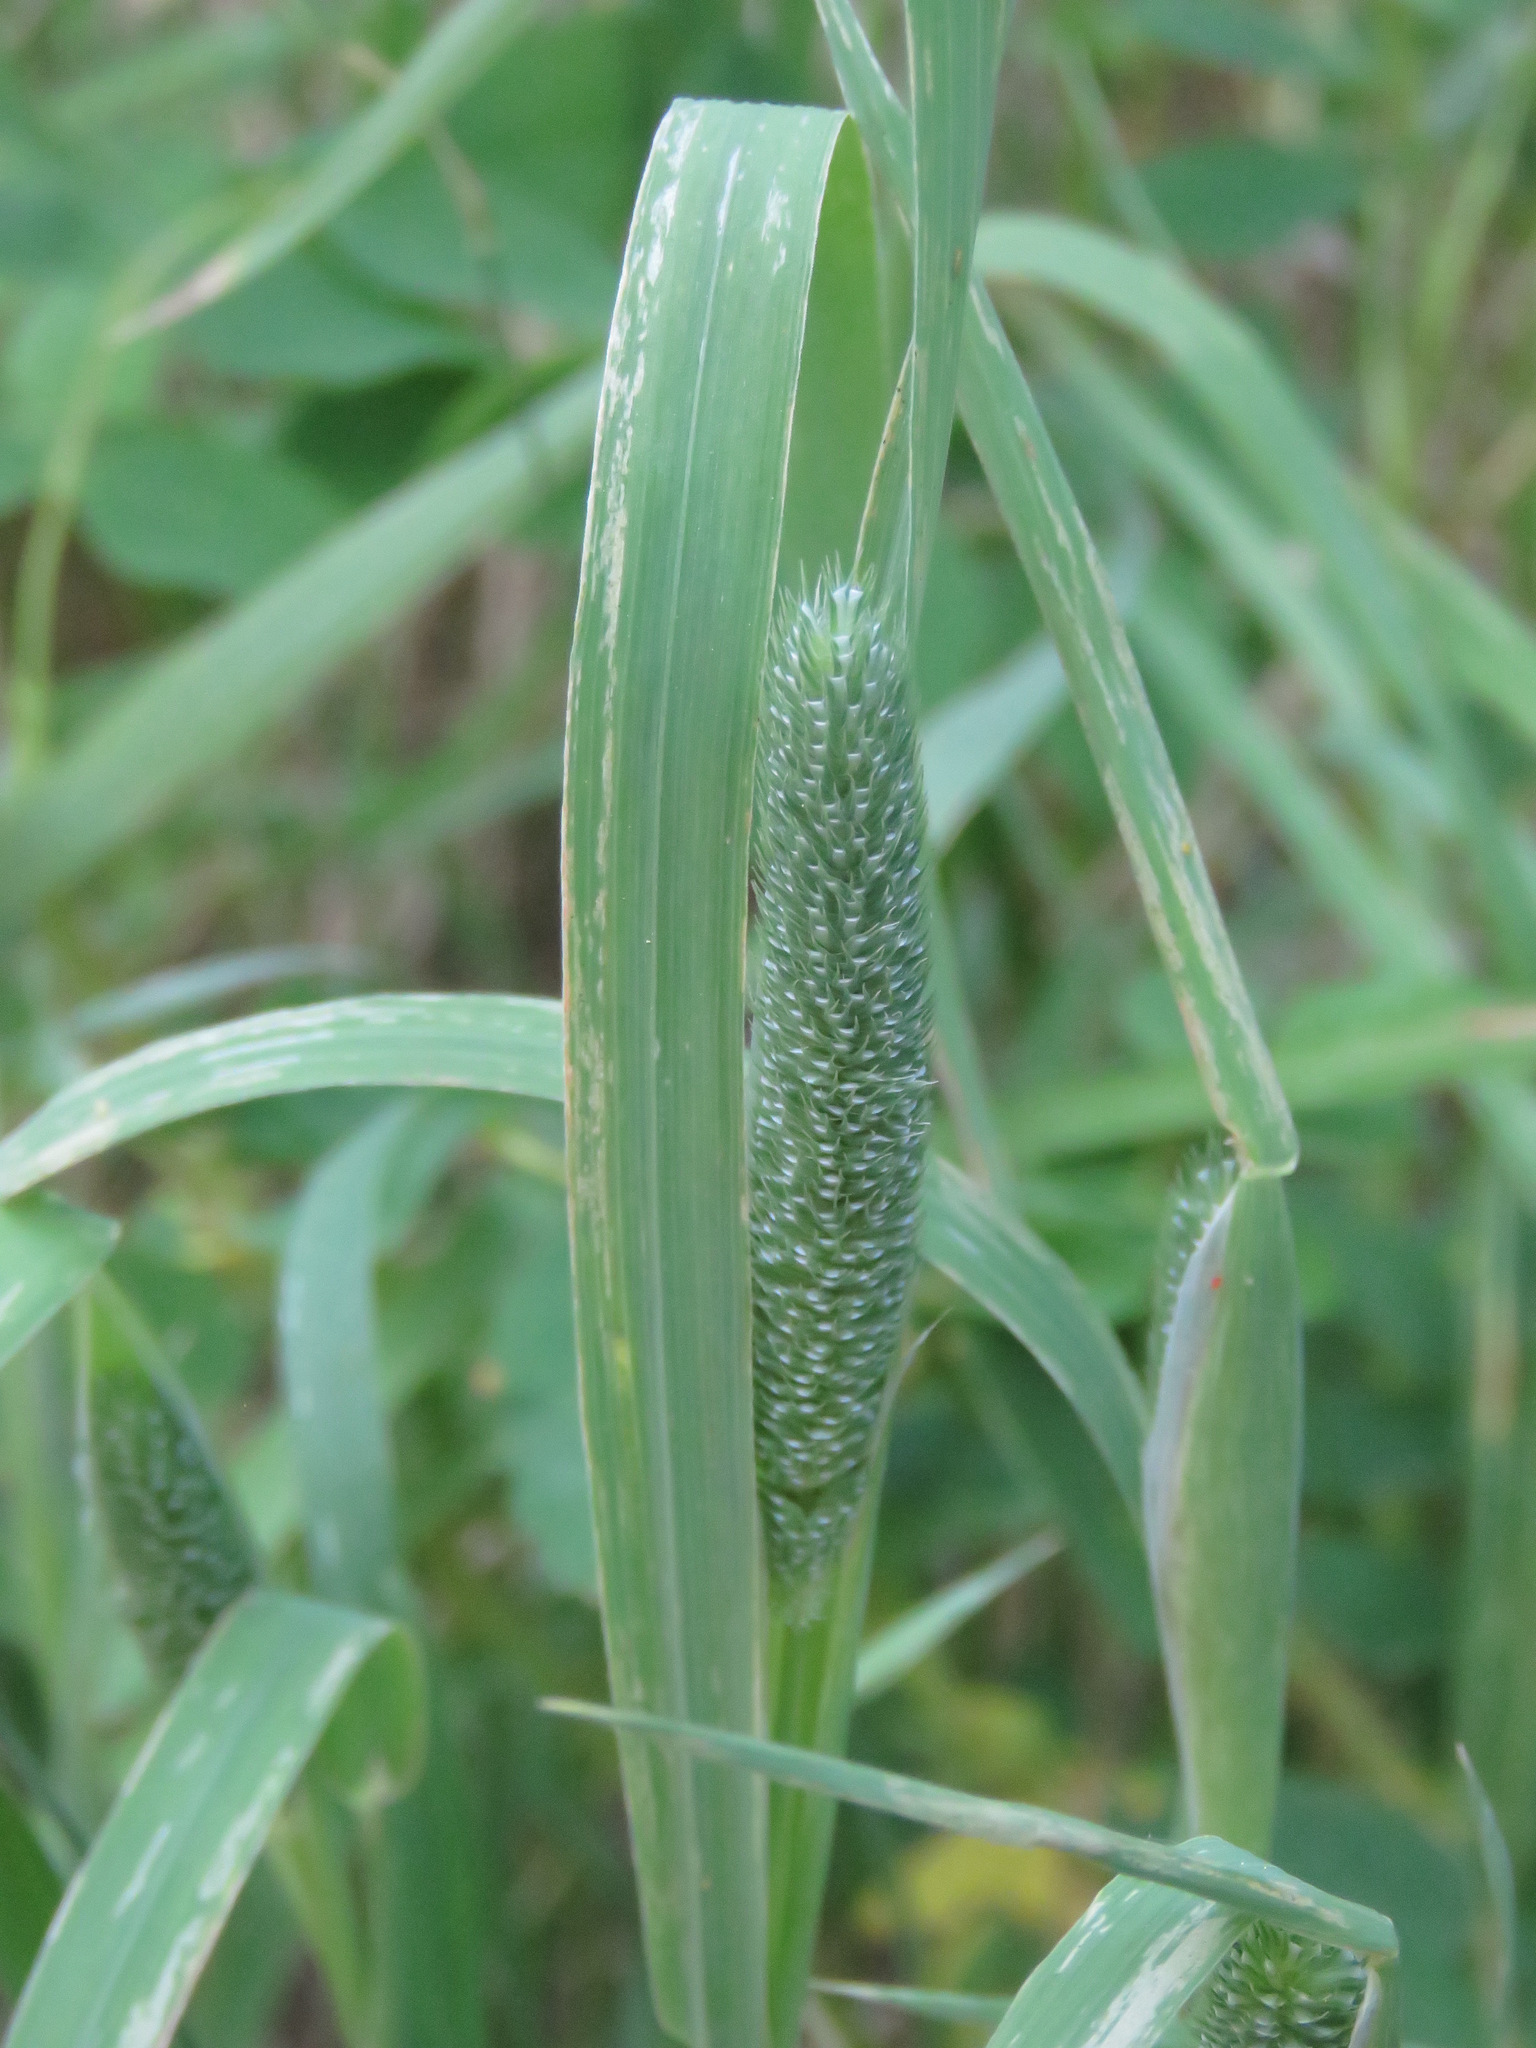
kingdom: Plantae
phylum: Tracheophyta
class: Liliopsida
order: Poales
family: Poaceae
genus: Phleum
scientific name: Phleum pratense
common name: Timothy grass
